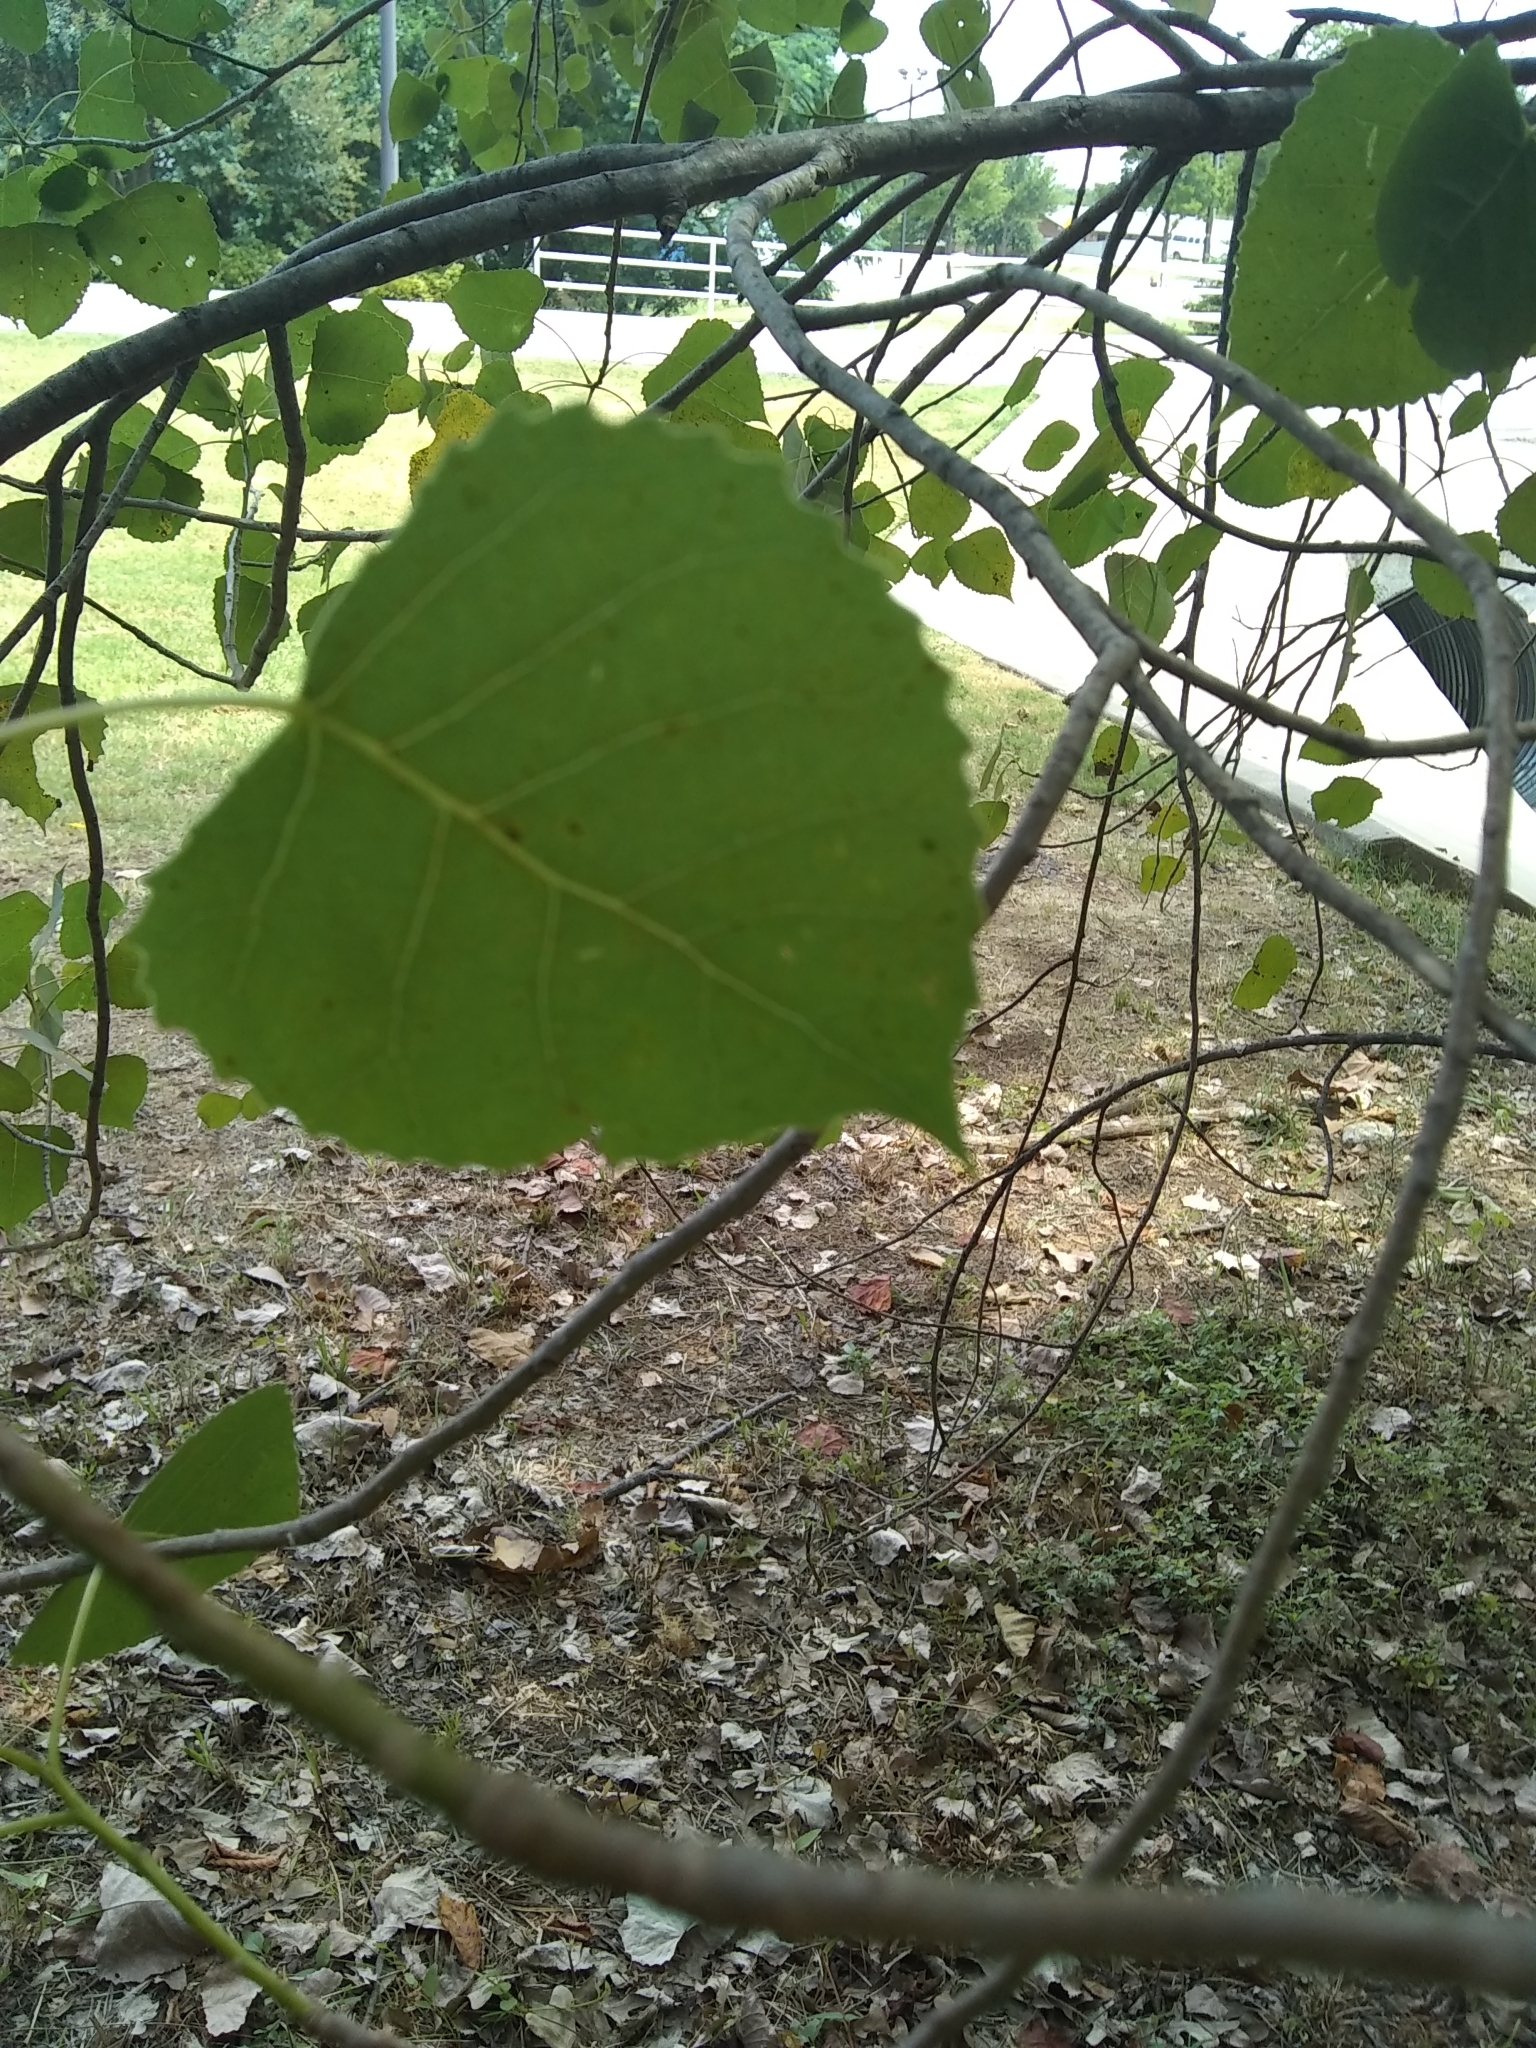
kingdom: Plantae
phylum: Tracheophyta
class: Magnoliopsida
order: Malpighiales
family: Salicaceae
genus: Populus
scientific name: Populus deltoides
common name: Eastern cottonwood
